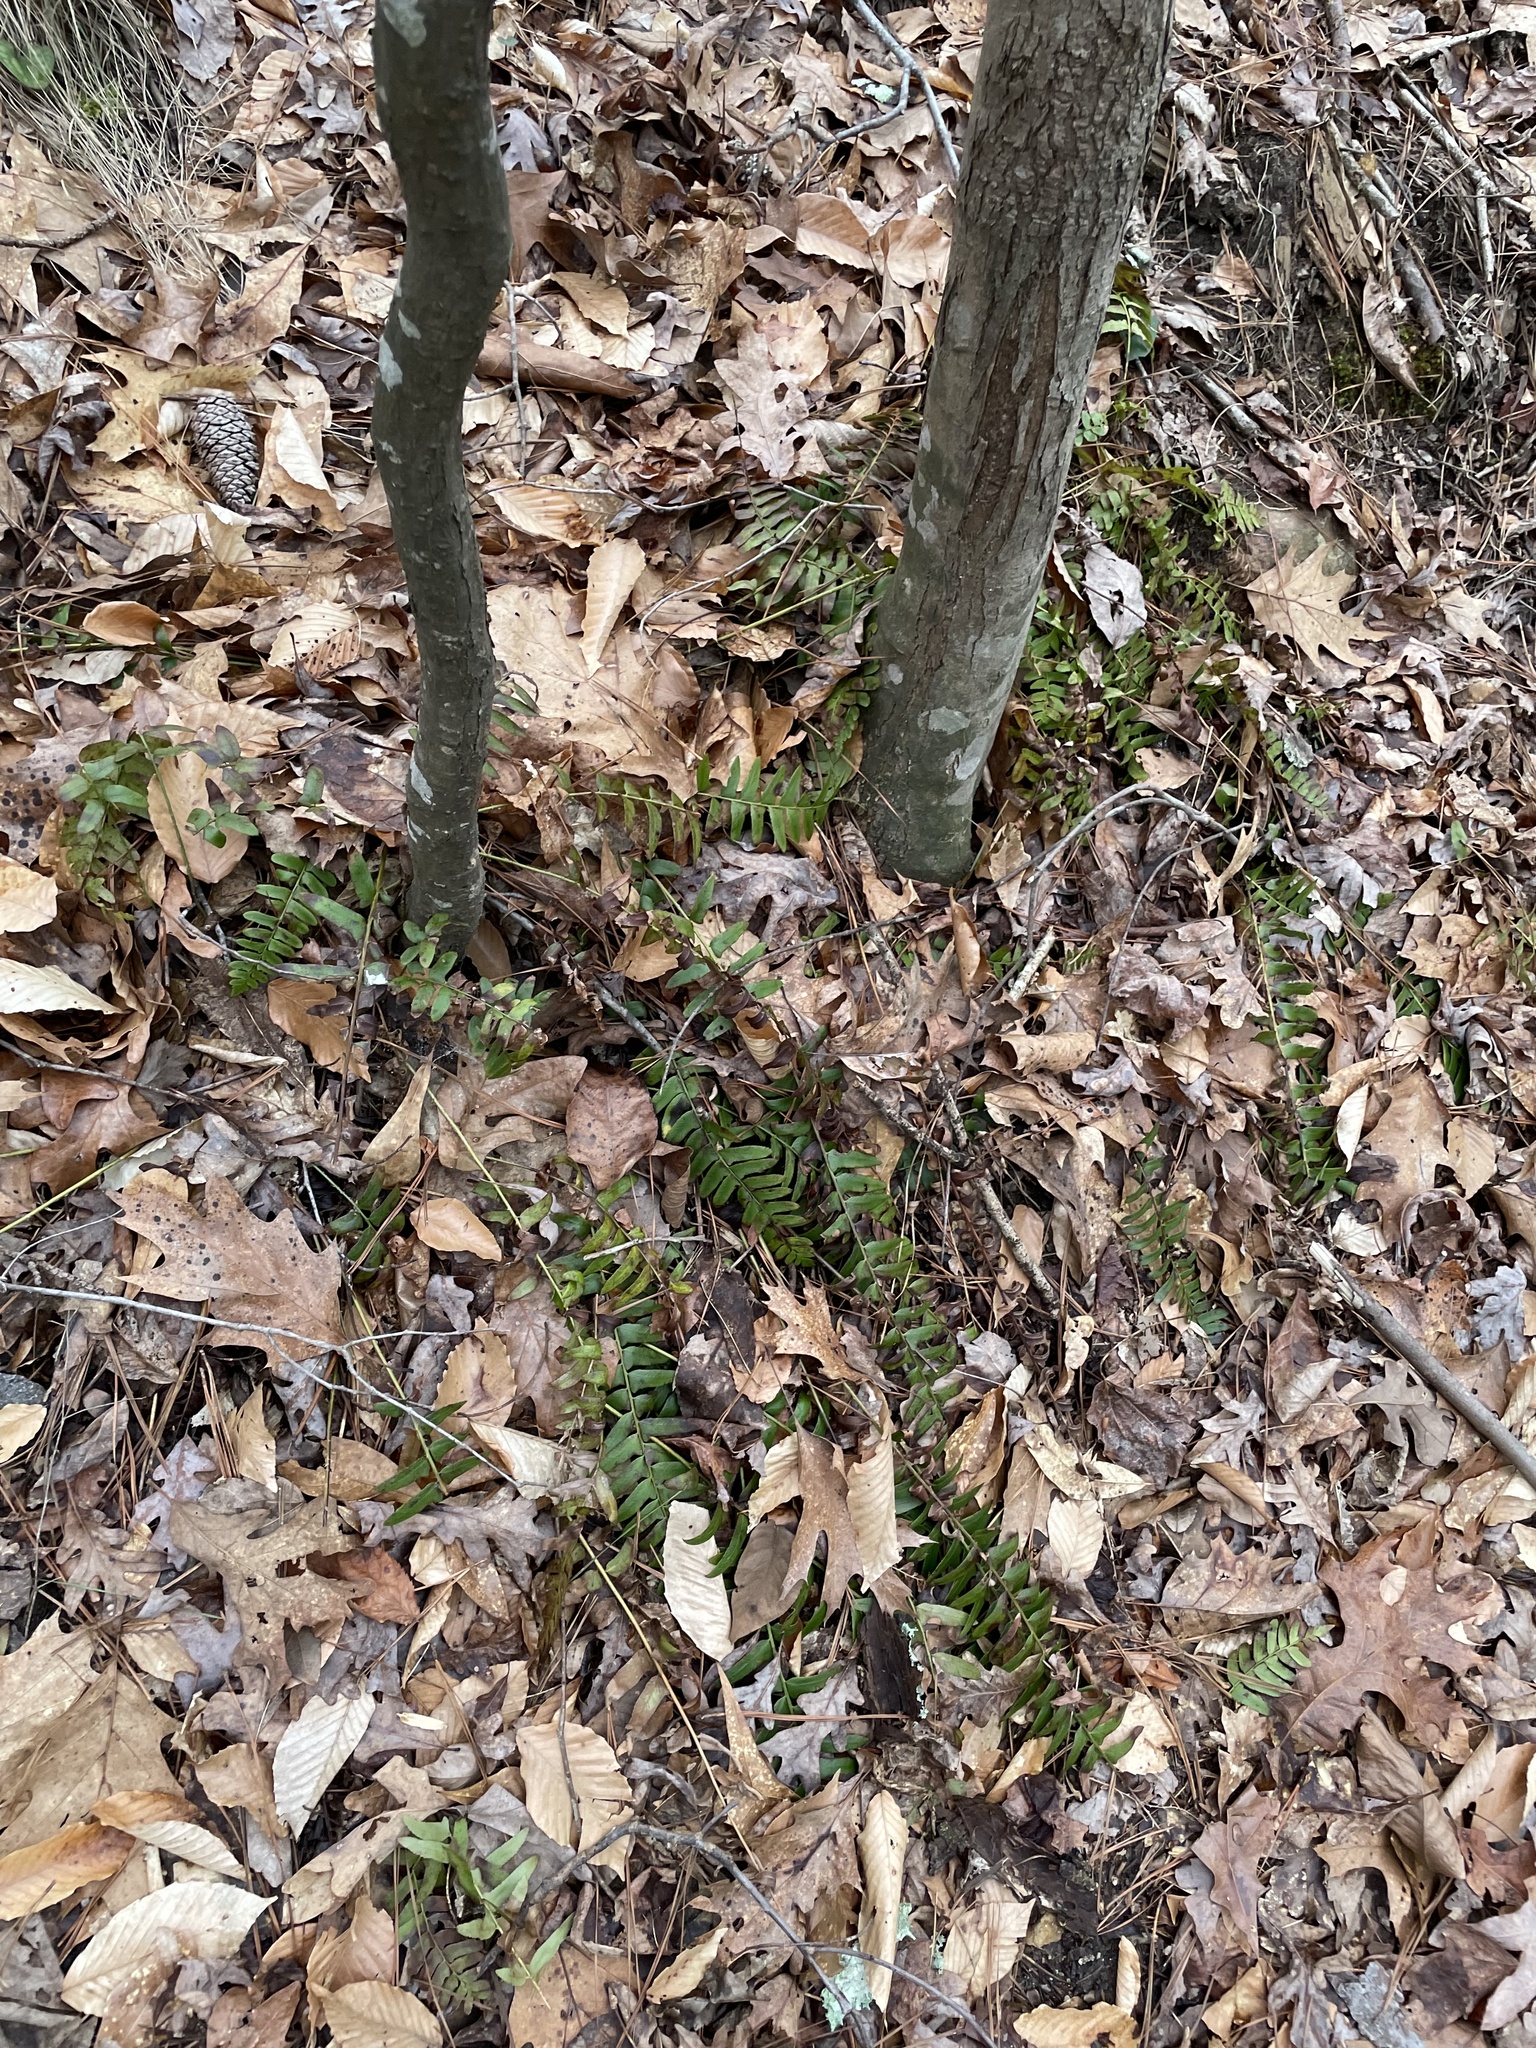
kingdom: Plantae
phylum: Tracheophyta
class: Polypodiopsida
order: Polypodiales
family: Dryopteridaceae
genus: Polystichum
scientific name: Polystichum acrostichoides
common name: Christmas fern
